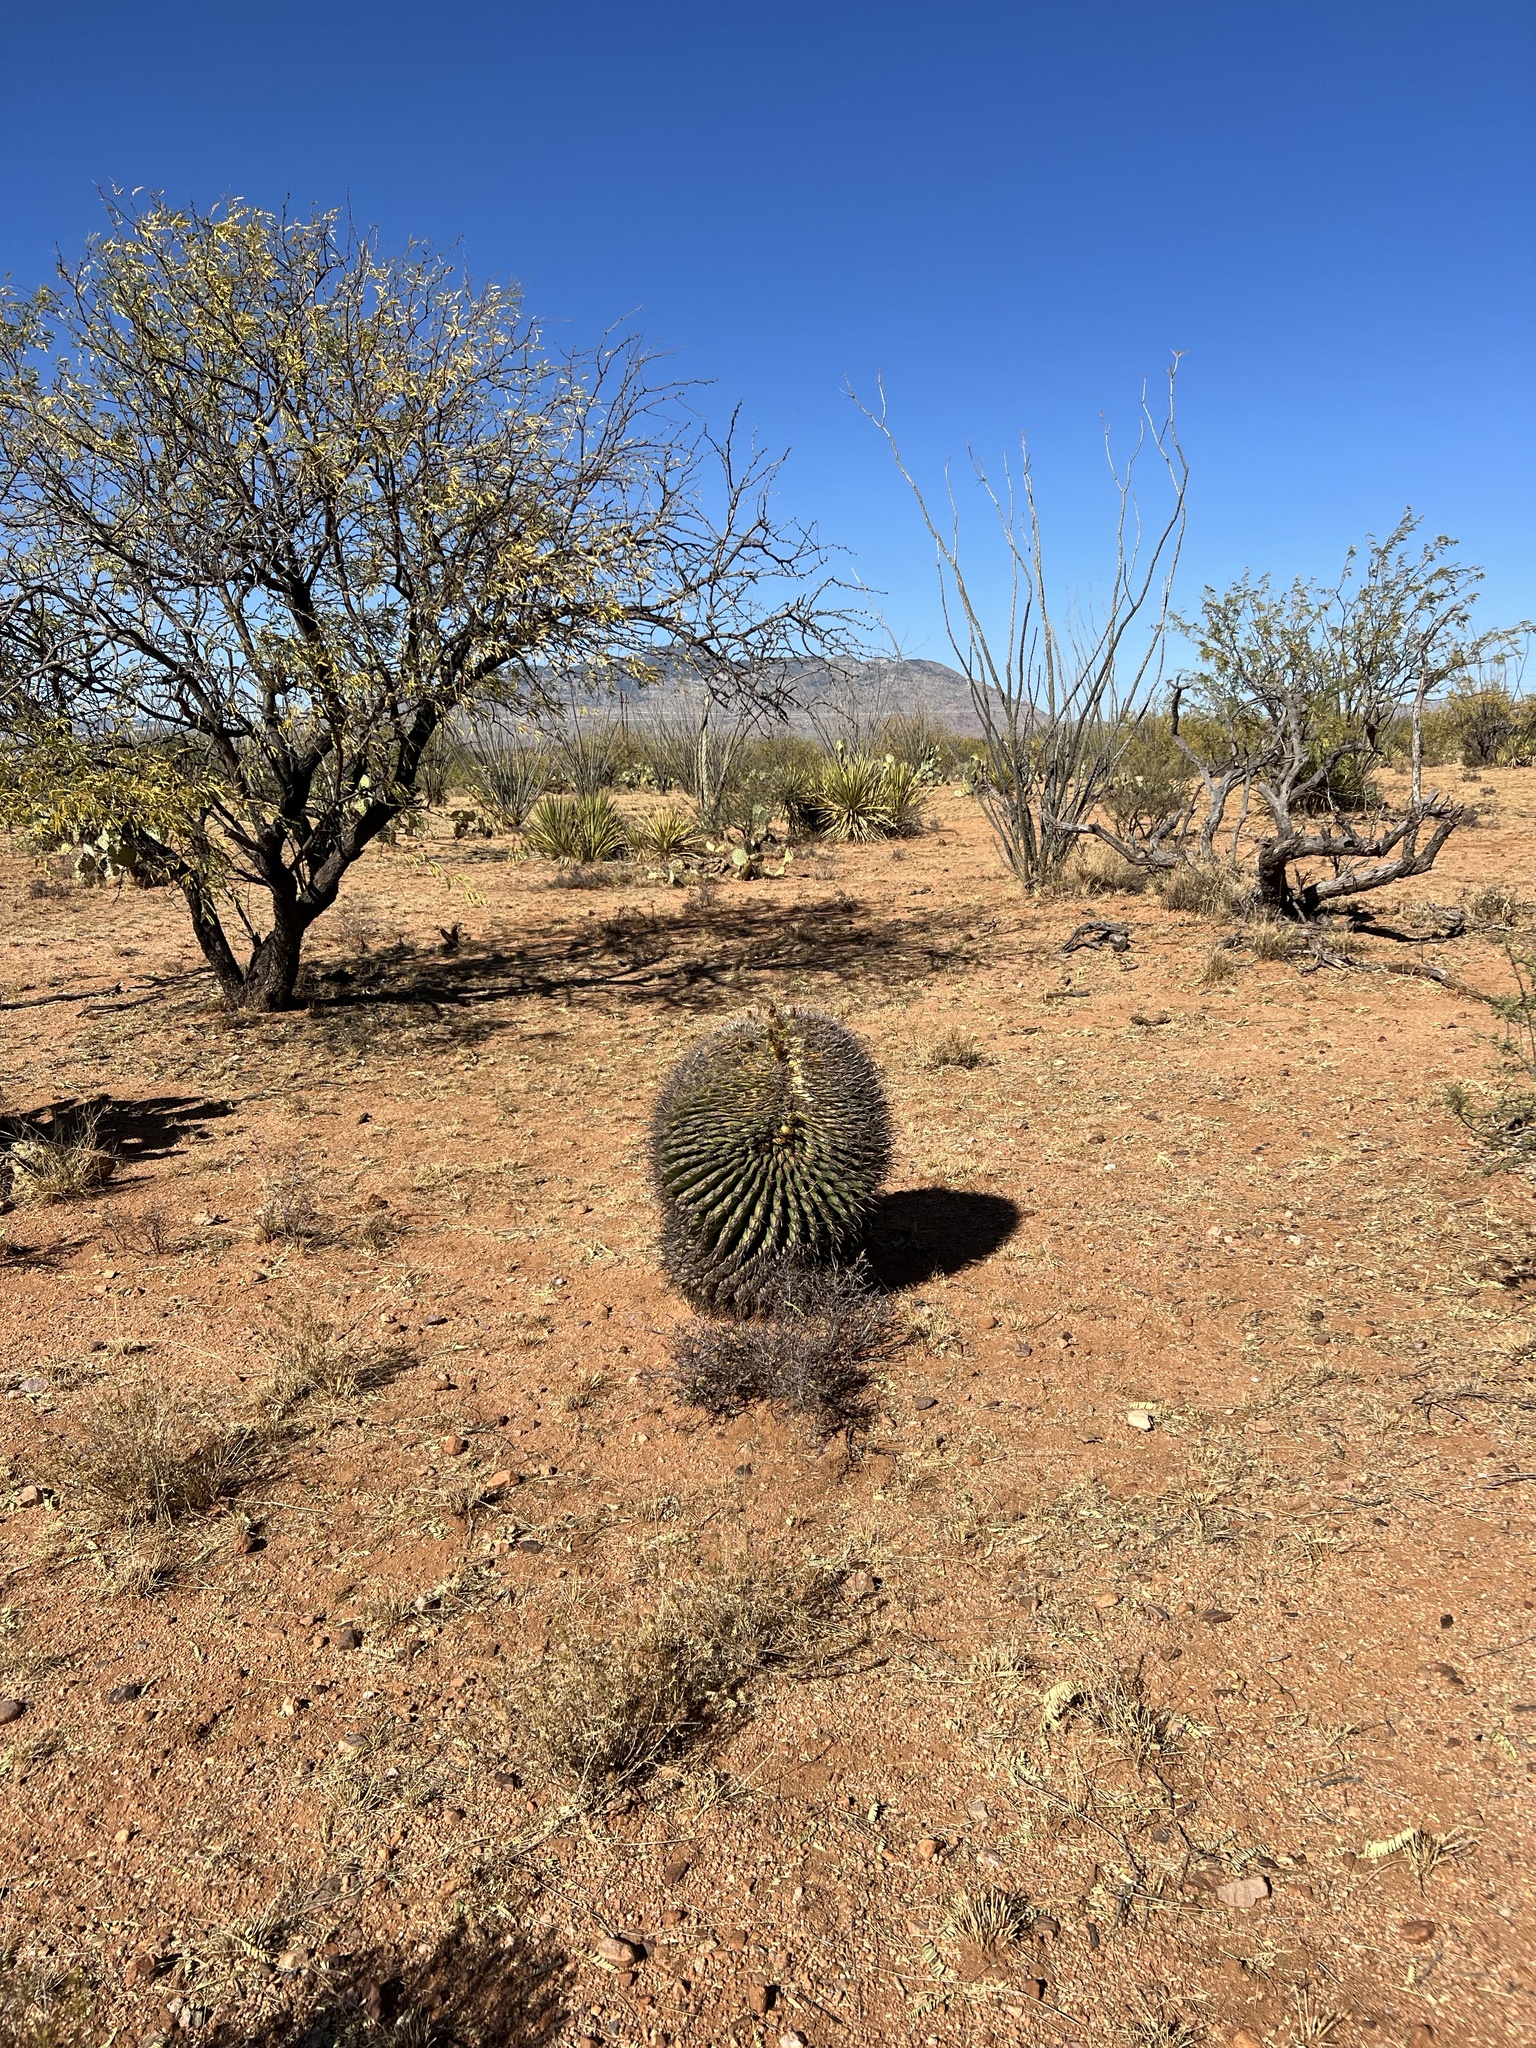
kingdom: Plantae
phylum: Tracheophyta
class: Magnoliopsida
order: Caryophyllales
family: Cactaceae
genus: Ferocactus
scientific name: Ferocactus wislizeni
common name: Candy barrel cactus
